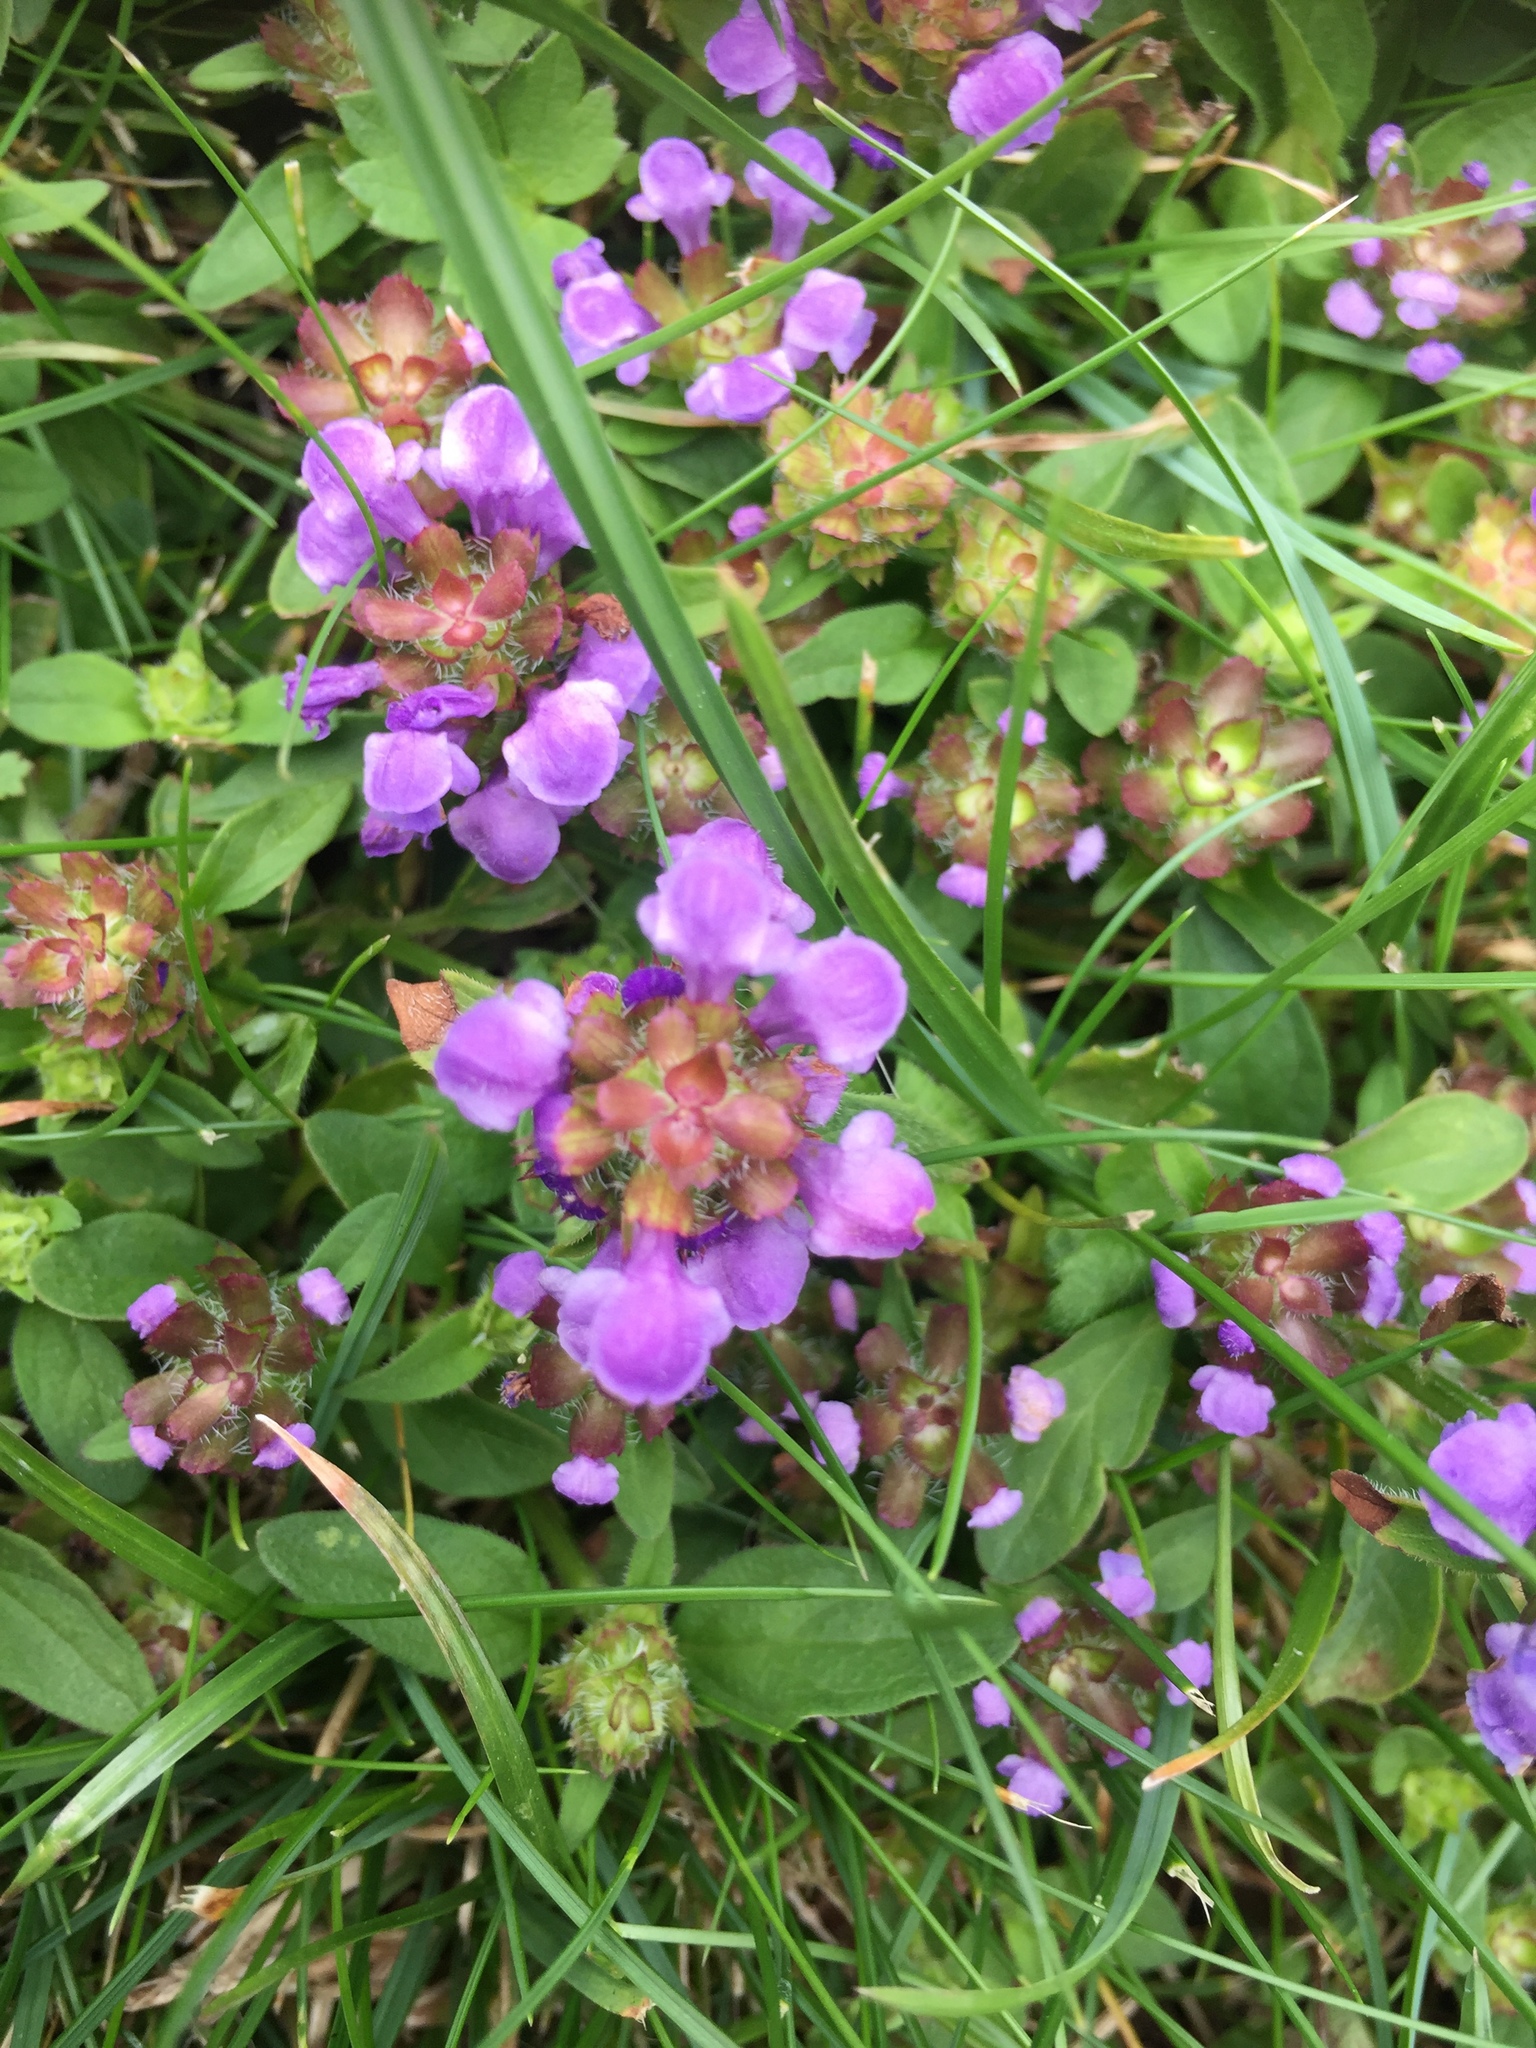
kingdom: Plantae
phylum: Tracheophyta
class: Magnoliopsida
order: Lamiales
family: Lamiaceae
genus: Prunella
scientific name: Prunella vulgaris
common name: Heal-all
